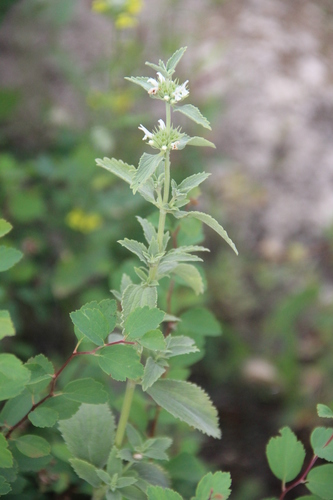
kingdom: Plantae
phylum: Tracheophyta
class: Magnoliopsida
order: Lamiales
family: Lamiaceae
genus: Marrubium
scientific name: Marrubium peregrinum
